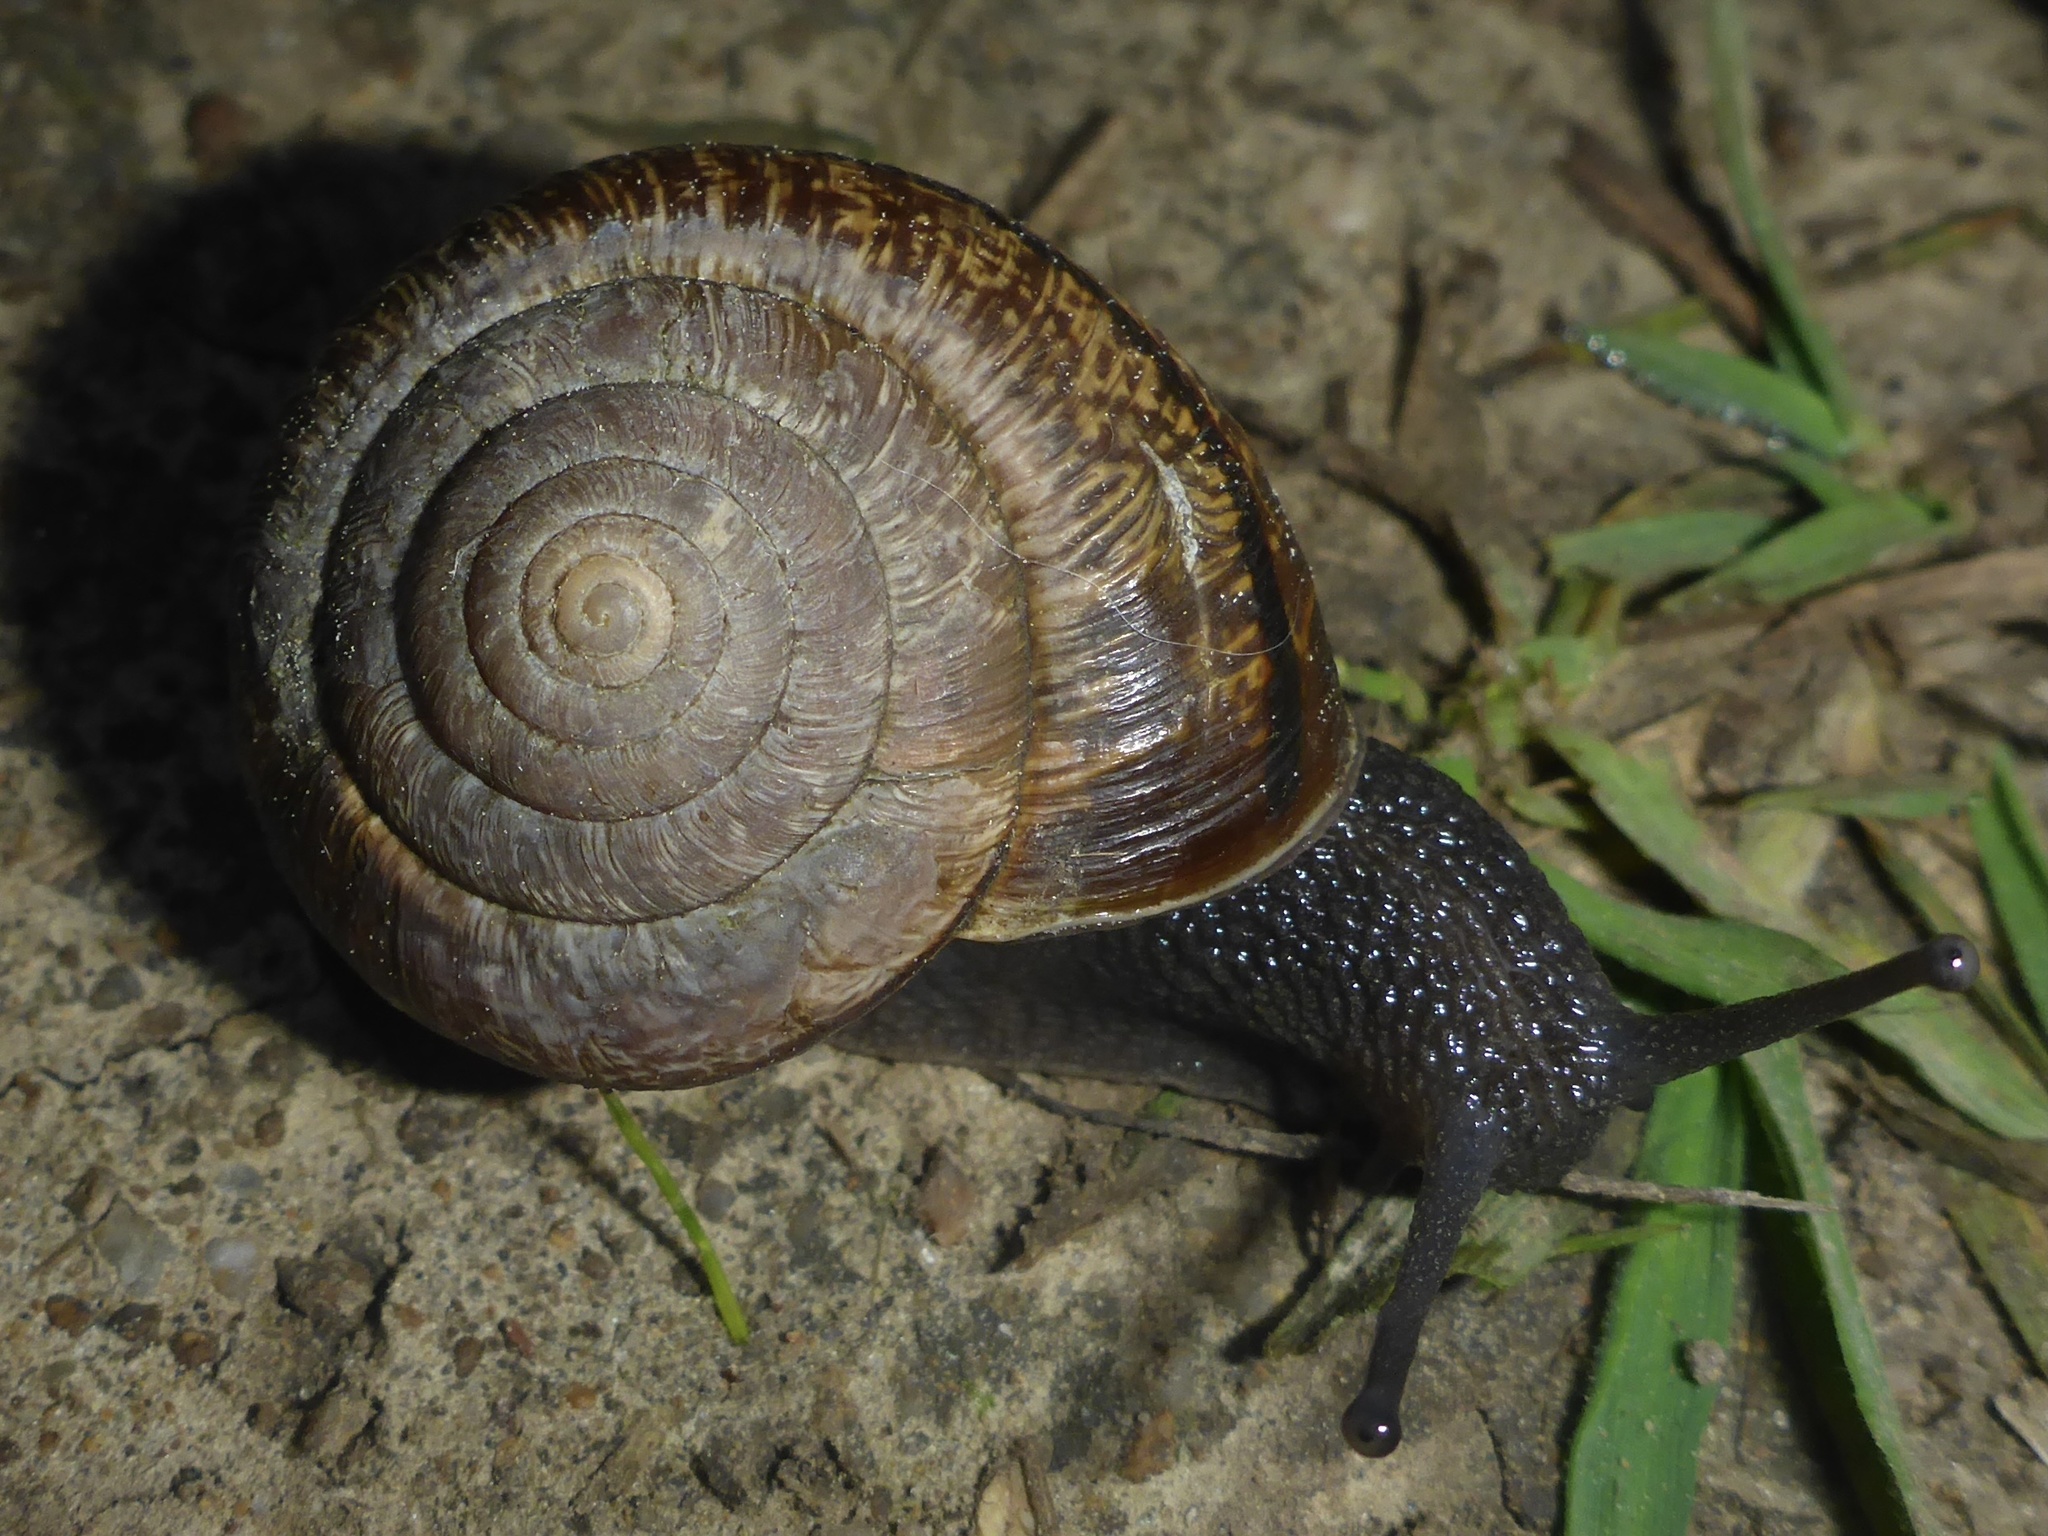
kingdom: Animalia
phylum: Mollusca
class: Gastropoda
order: Stylommatophora
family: Xanthonychidae
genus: Helminthoglypta
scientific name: Helminthoglypta arrosa
